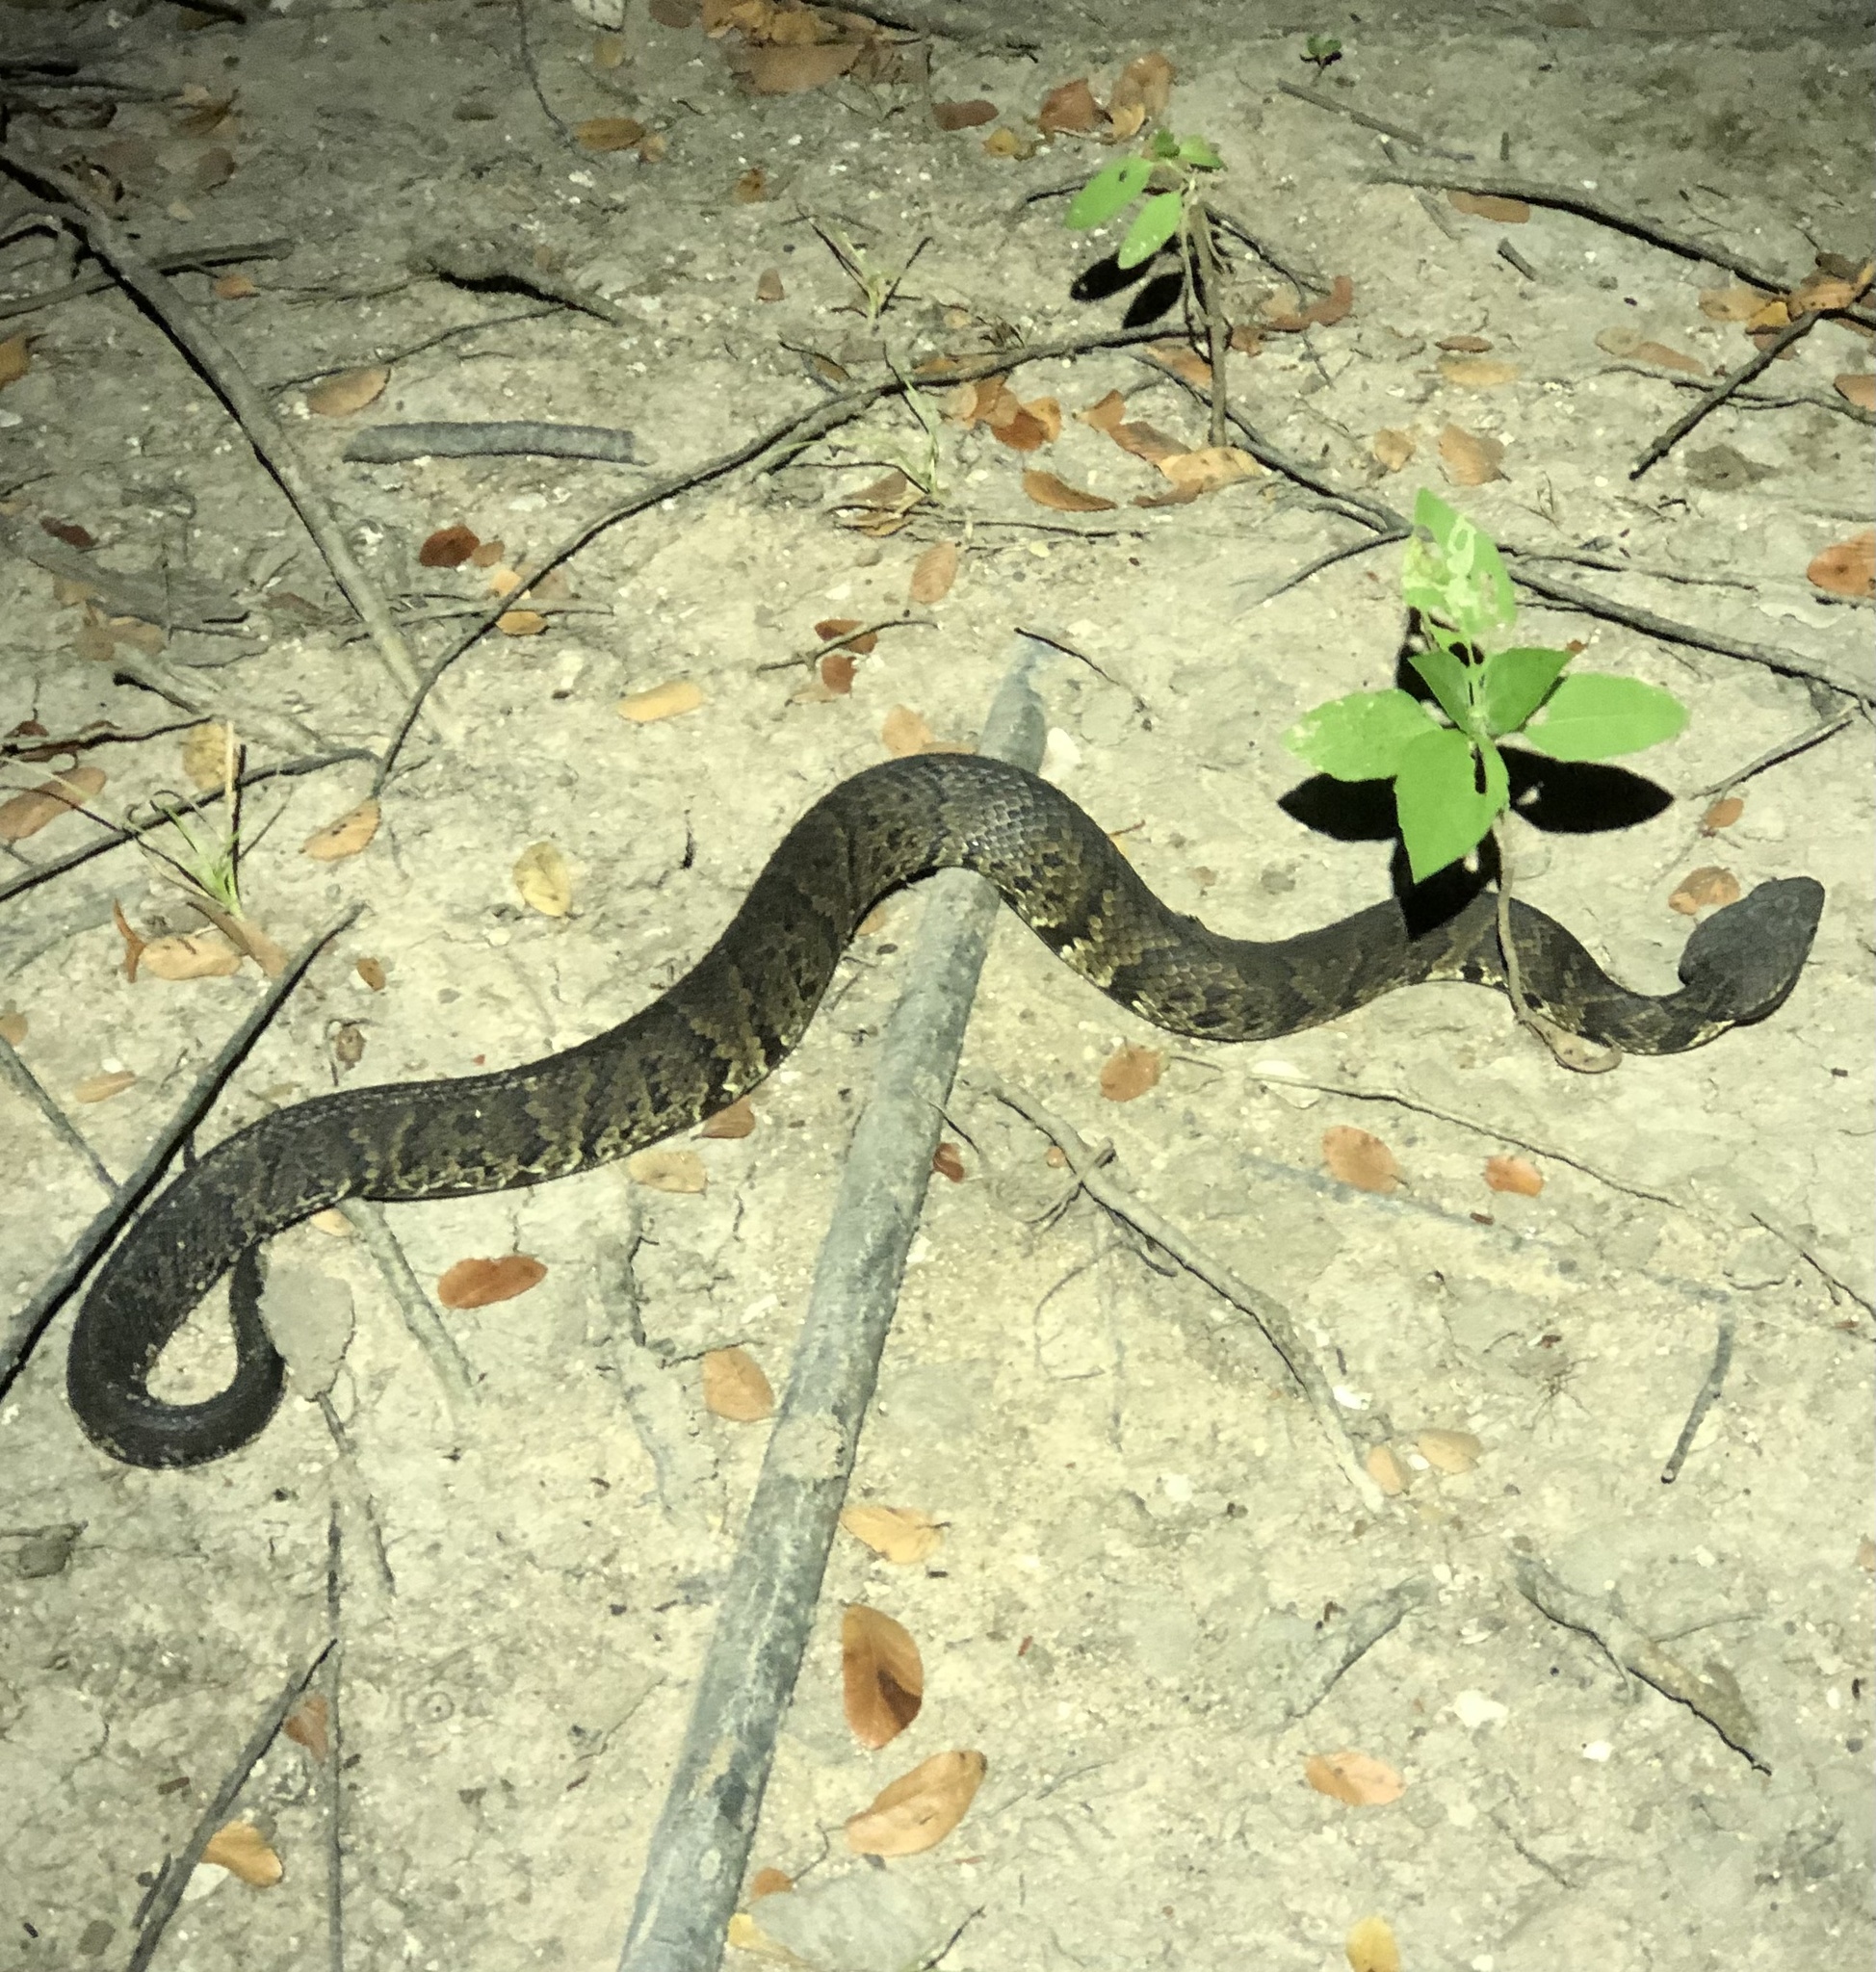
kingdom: Animalia
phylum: Chordata
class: Squamata
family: Viperidae
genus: Agkistrodon
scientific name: Agkistrodon piscivorus
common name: Cottonmouth
